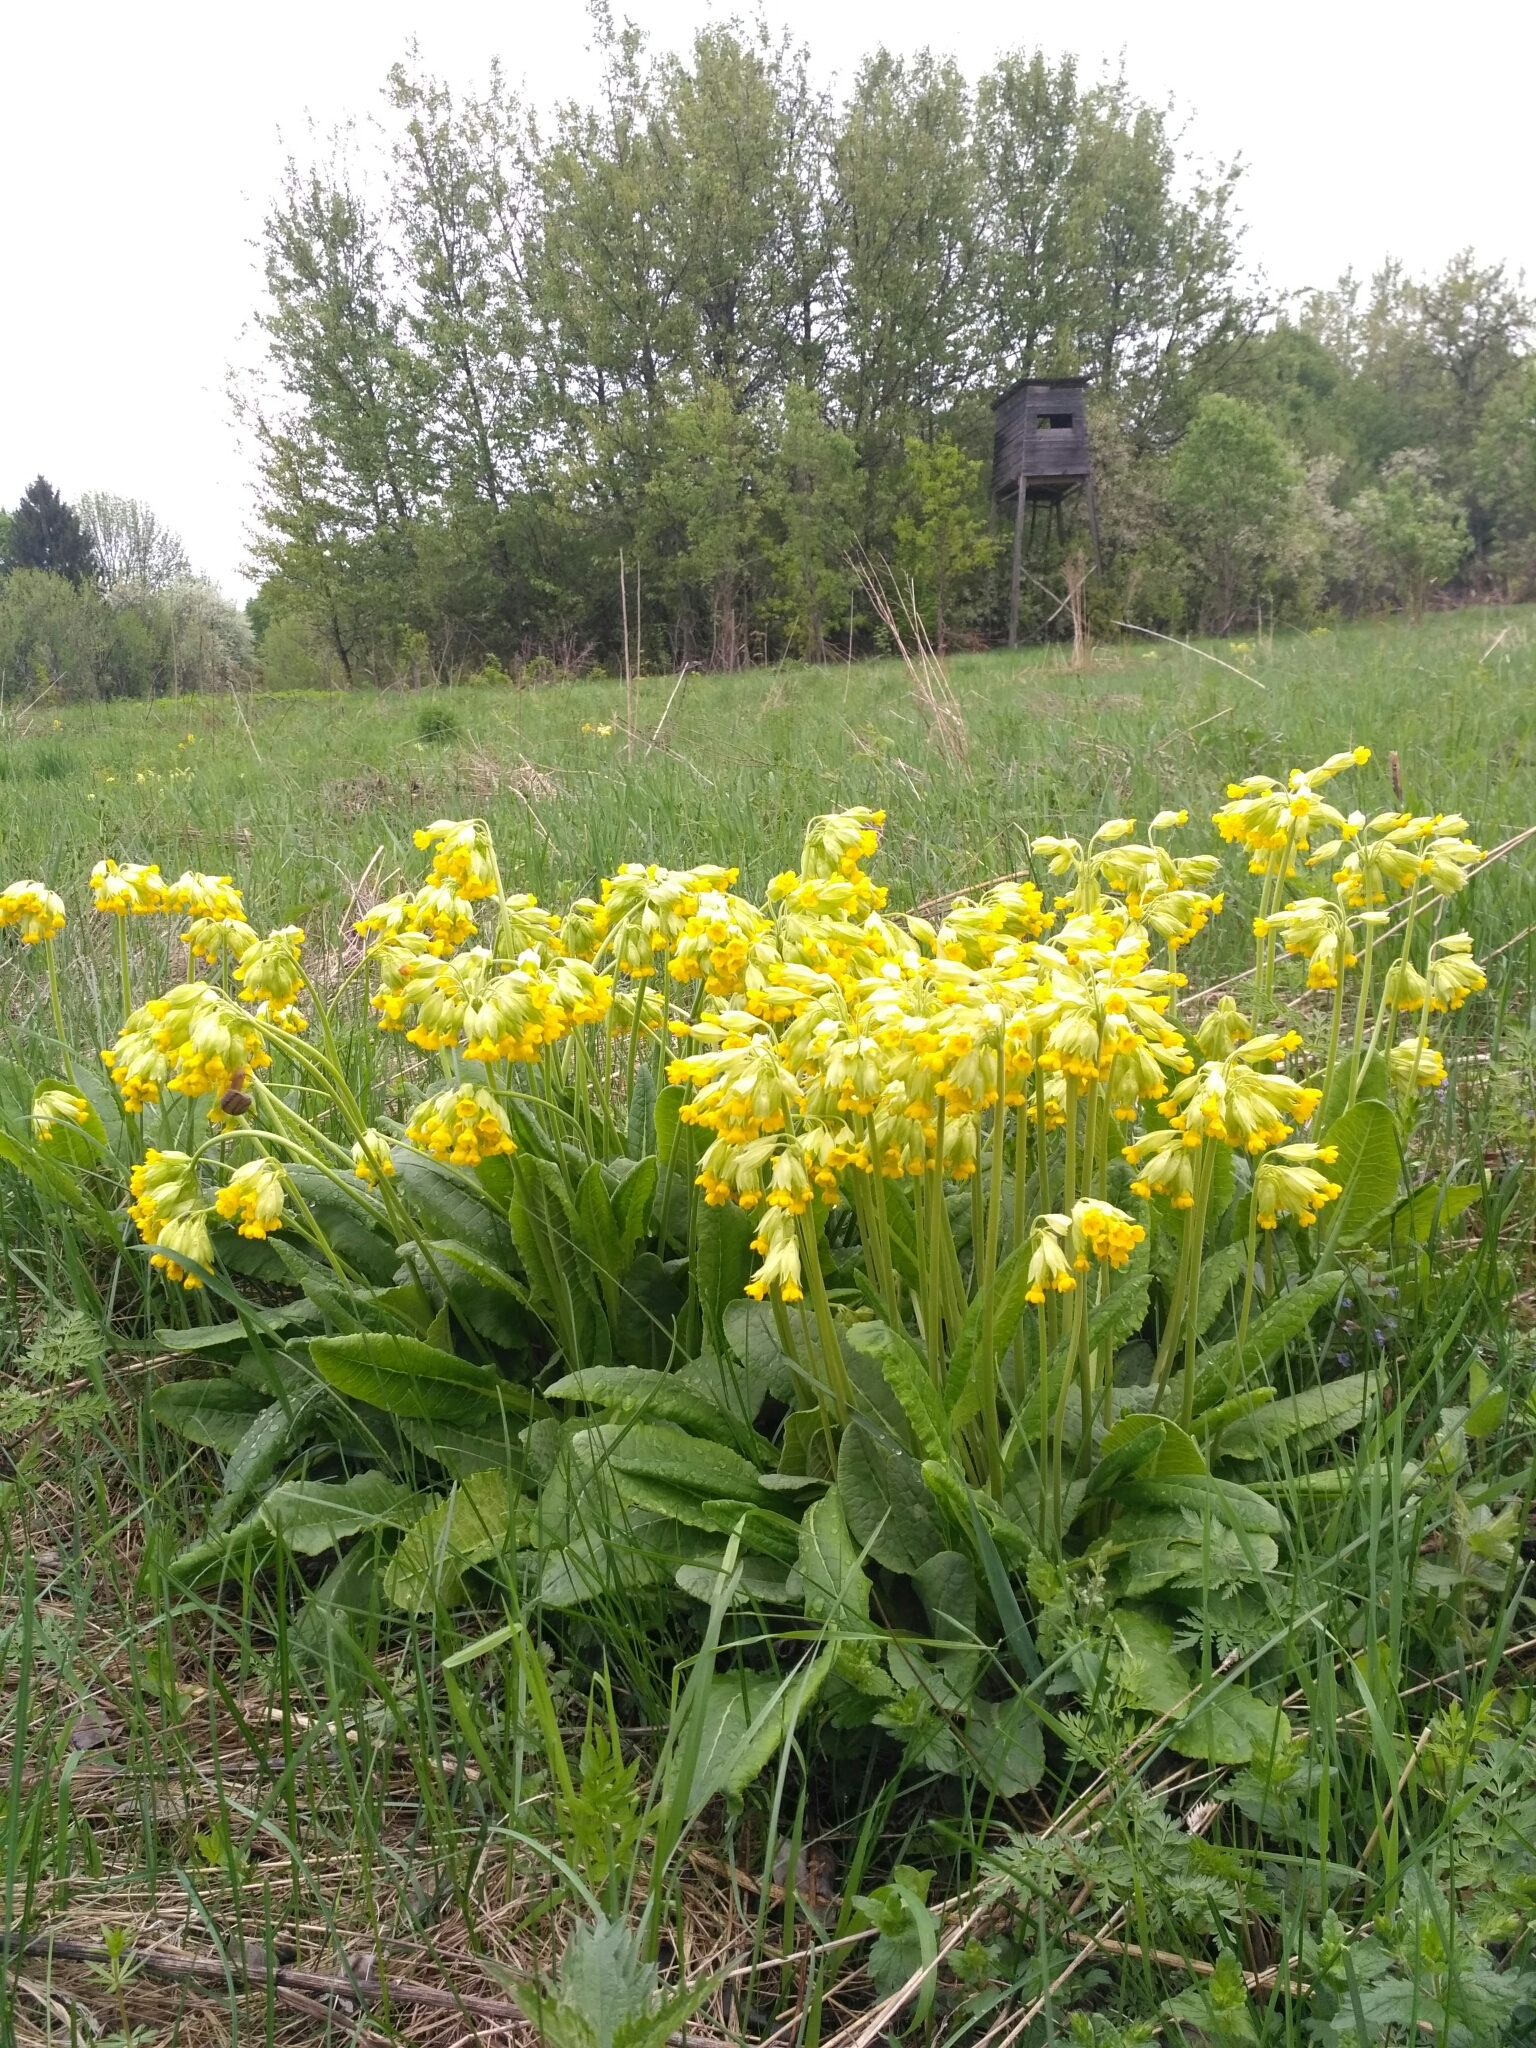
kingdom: Plantae
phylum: Tracheophyta
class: Magnoliopsida
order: Ericales
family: Primulaceae
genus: Primula
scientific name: Primula veris
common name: Cowslip
